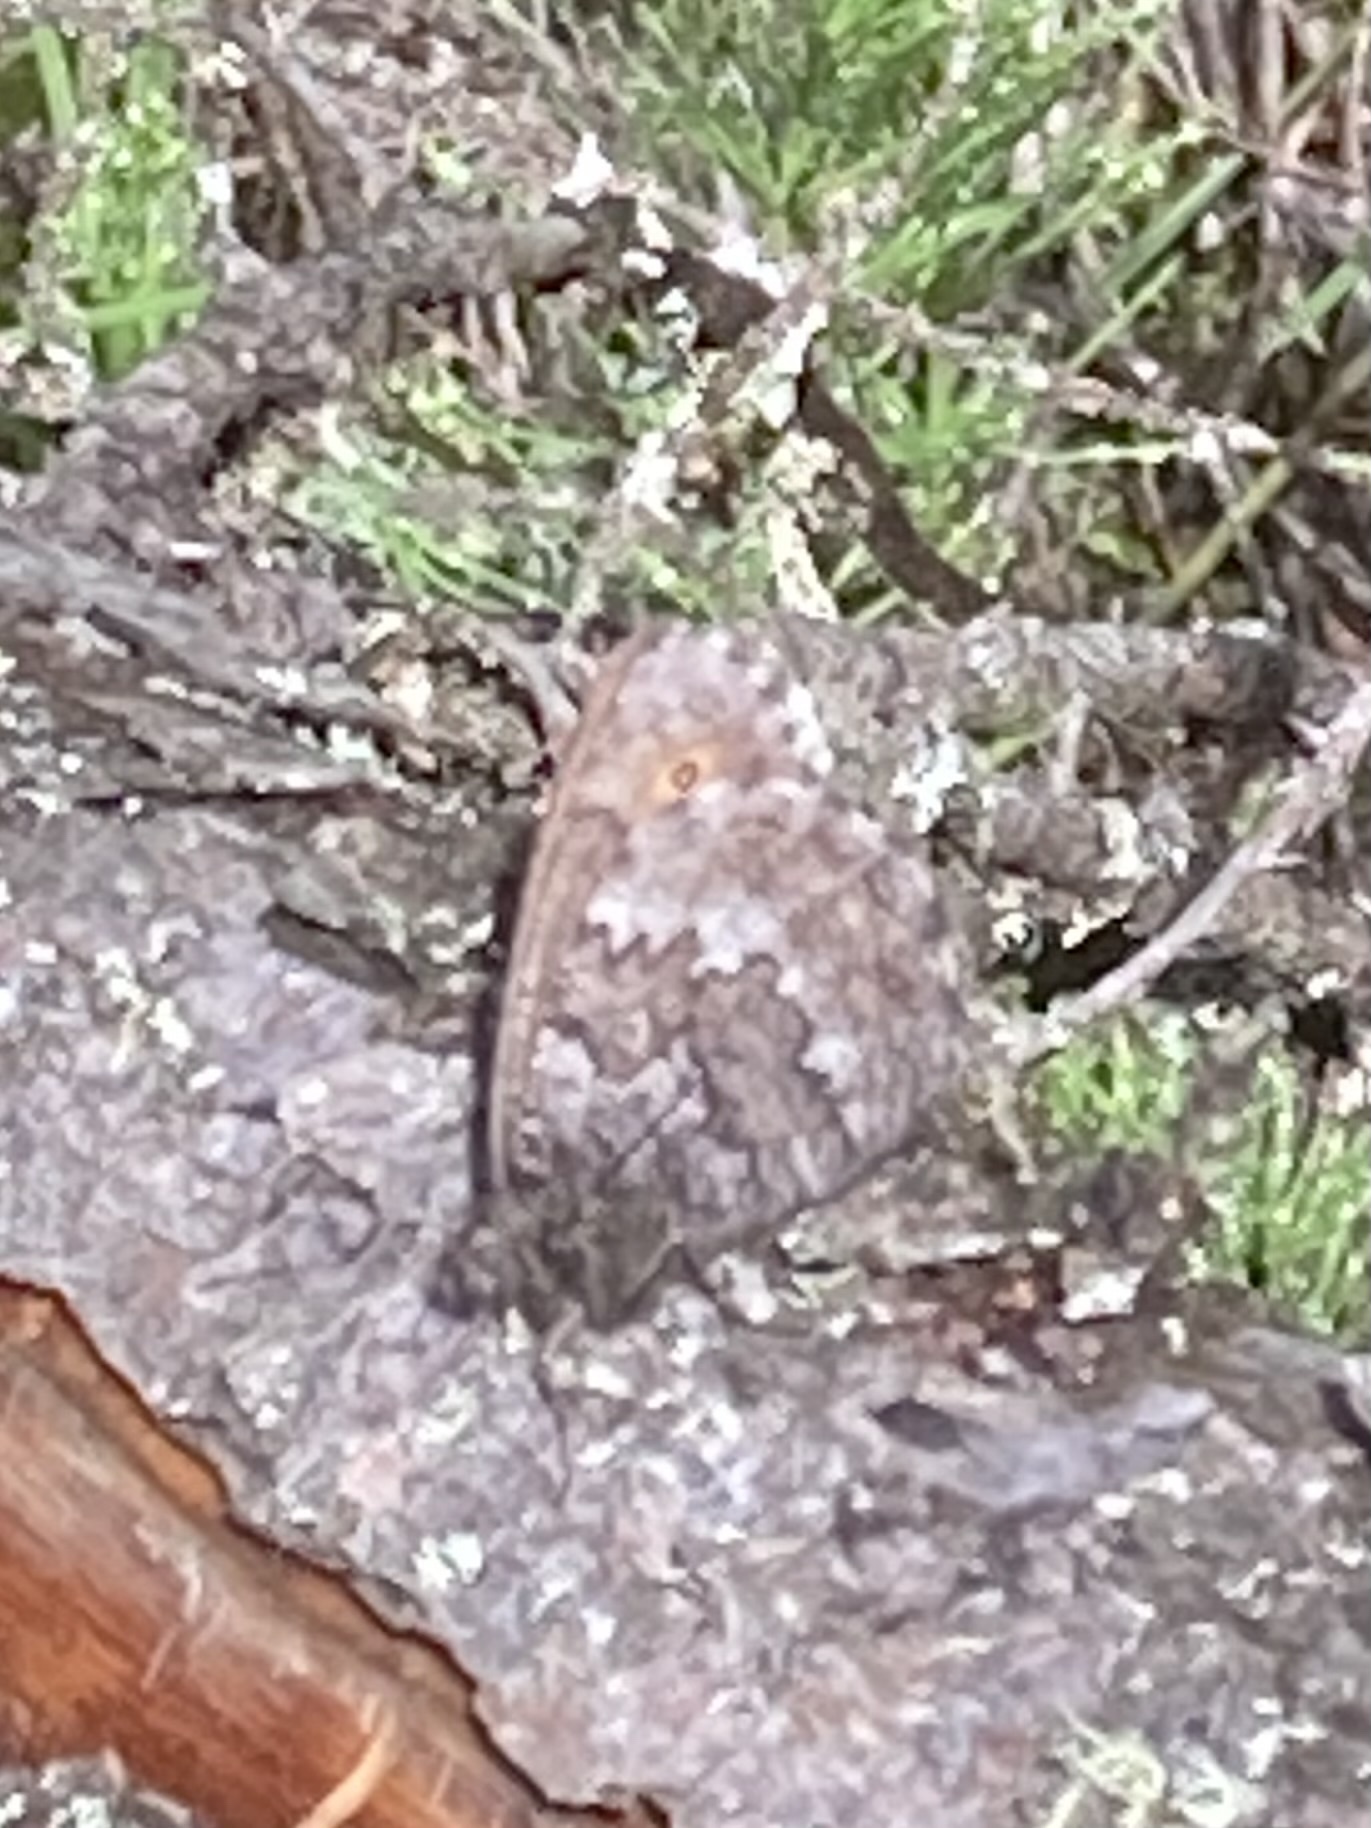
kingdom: Animalia
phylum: Arthropoda
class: Insecta
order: Lepidoptera
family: Nymphalidae
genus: Oeneis
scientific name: Oeneis jutta
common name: Baltic grayling
